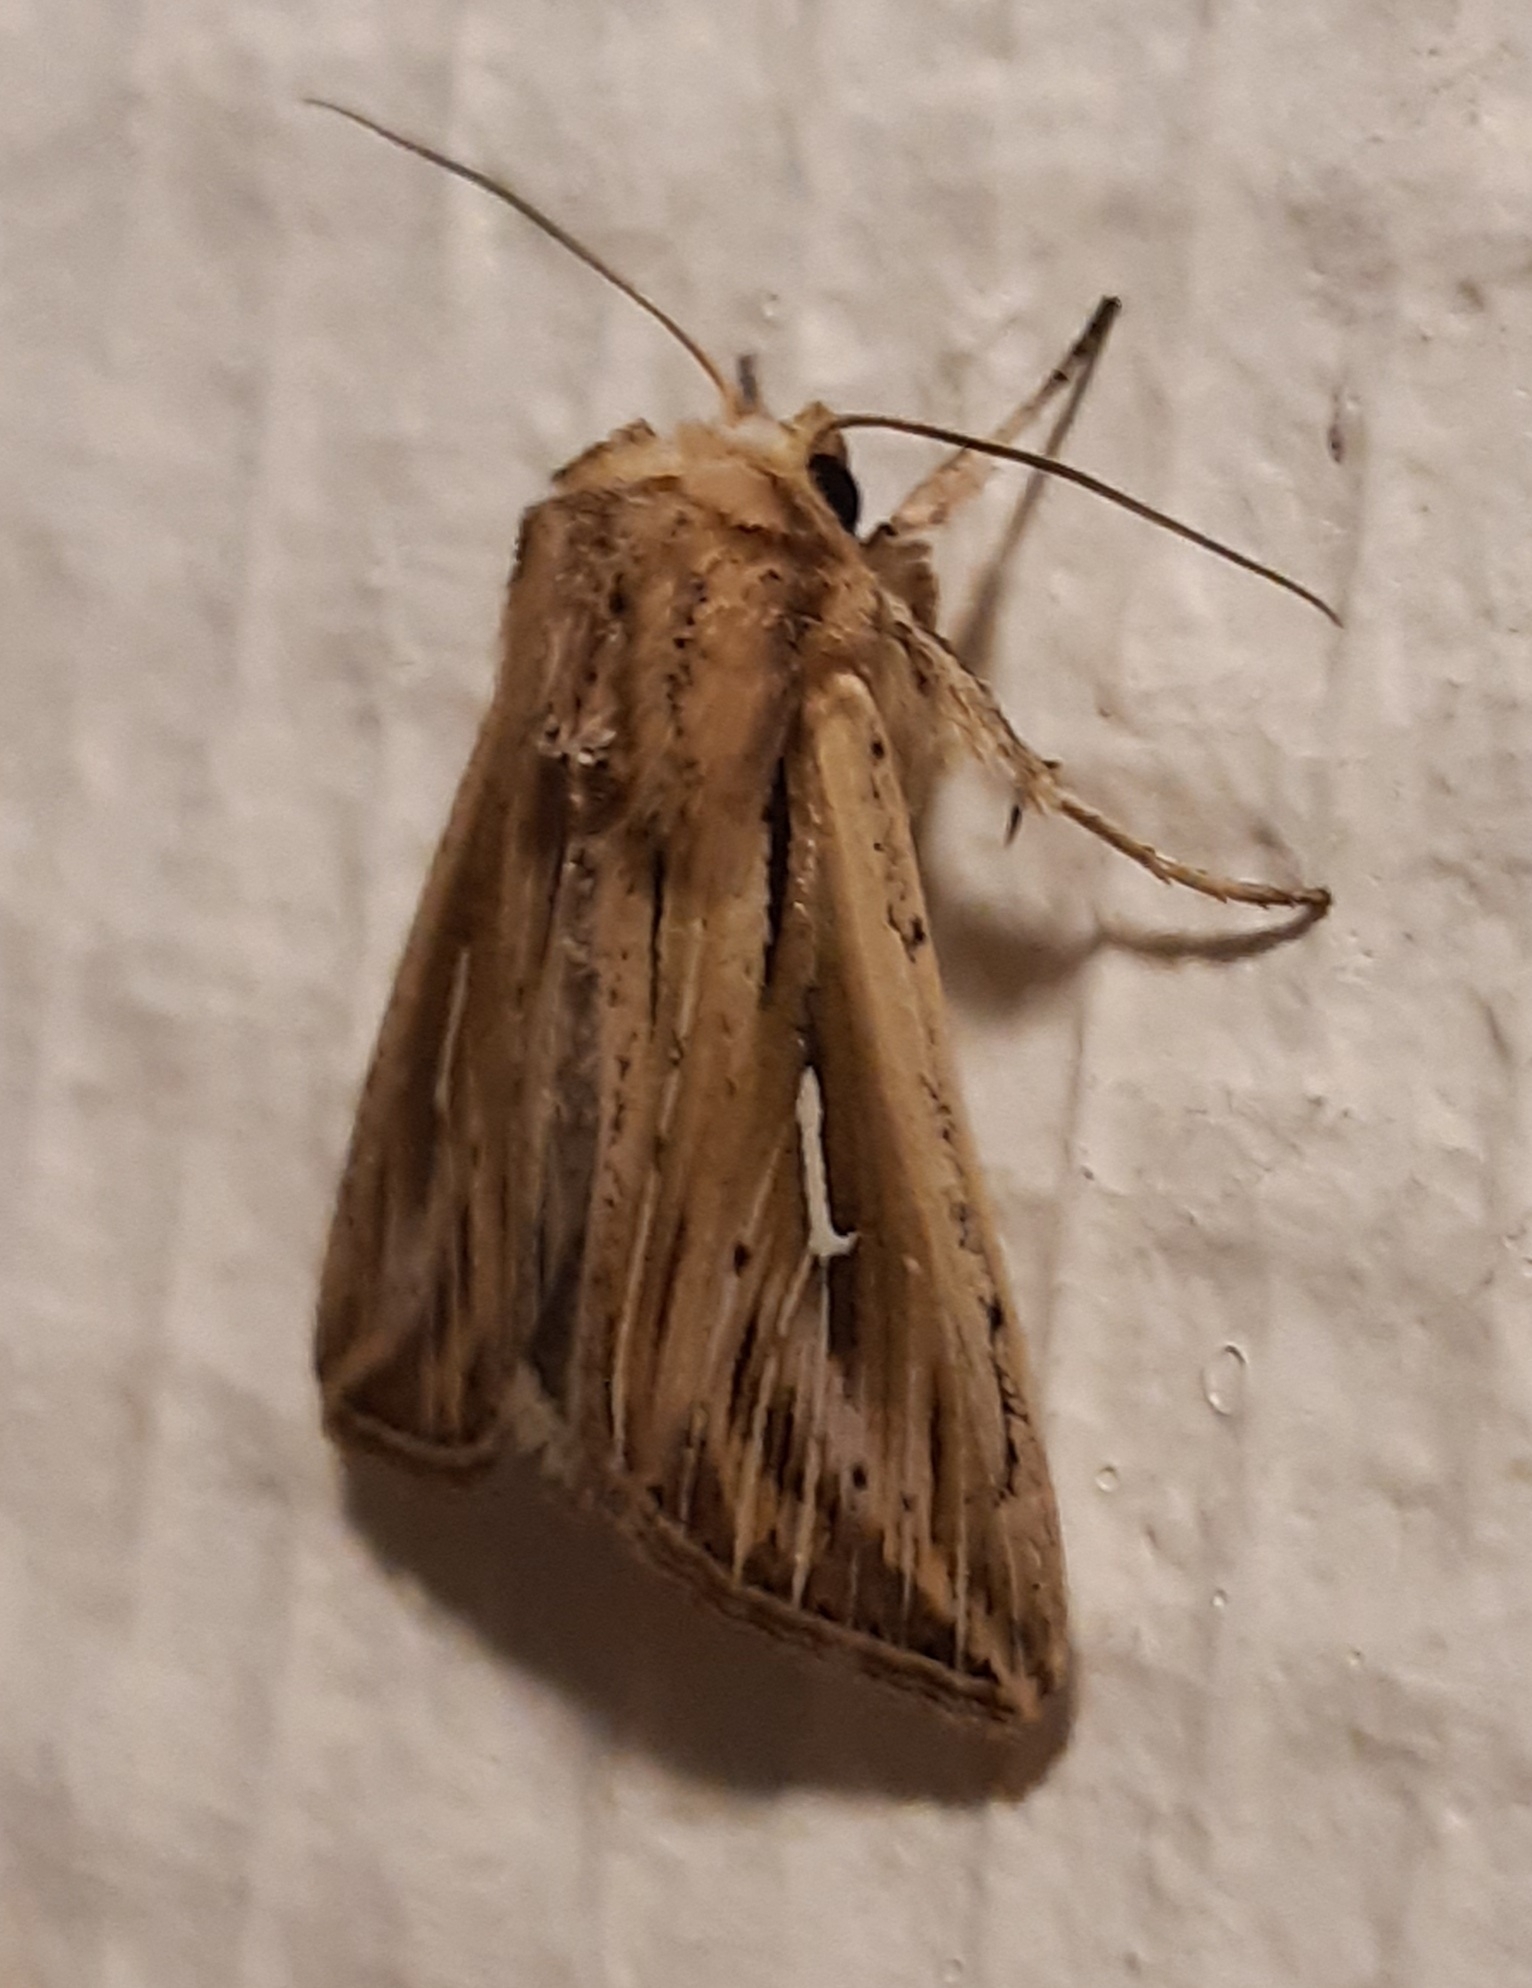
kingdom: Animalia
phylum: Arthropoda
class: Insecta
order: Lepidoptera
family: Noctuidae
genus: Mythimna
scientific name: Mythimna l-album
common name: L-album wainscot
